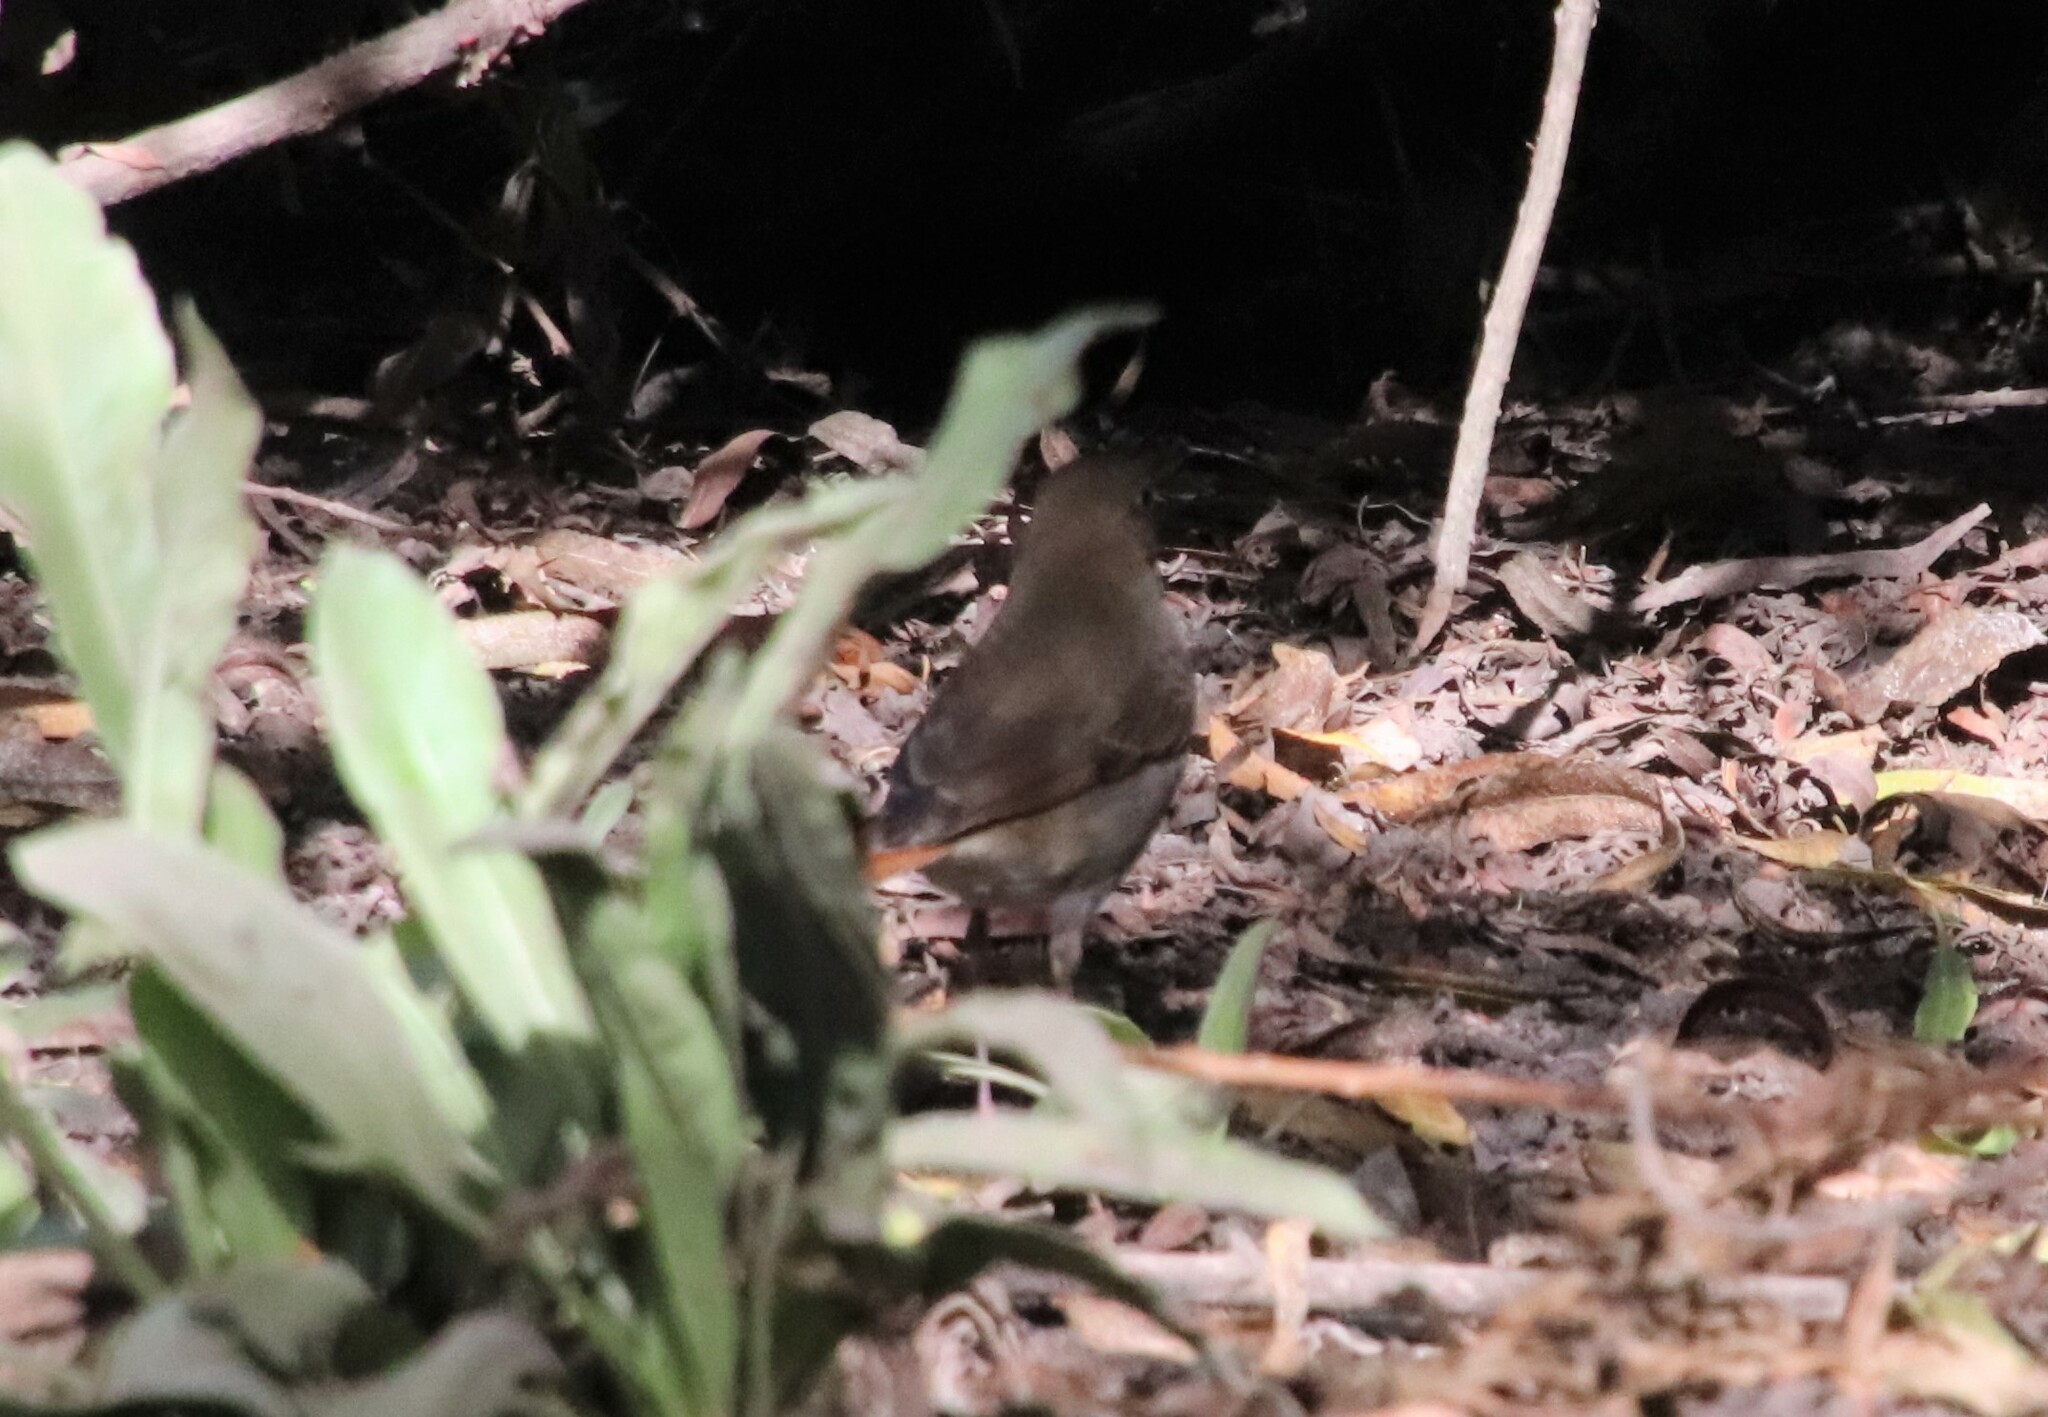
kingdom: Animalia
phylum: Chordata
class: Aves
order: Passeriformes
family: Turdidae
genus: Catharus
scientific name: Catharus guttatus
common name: Hermit thrush
